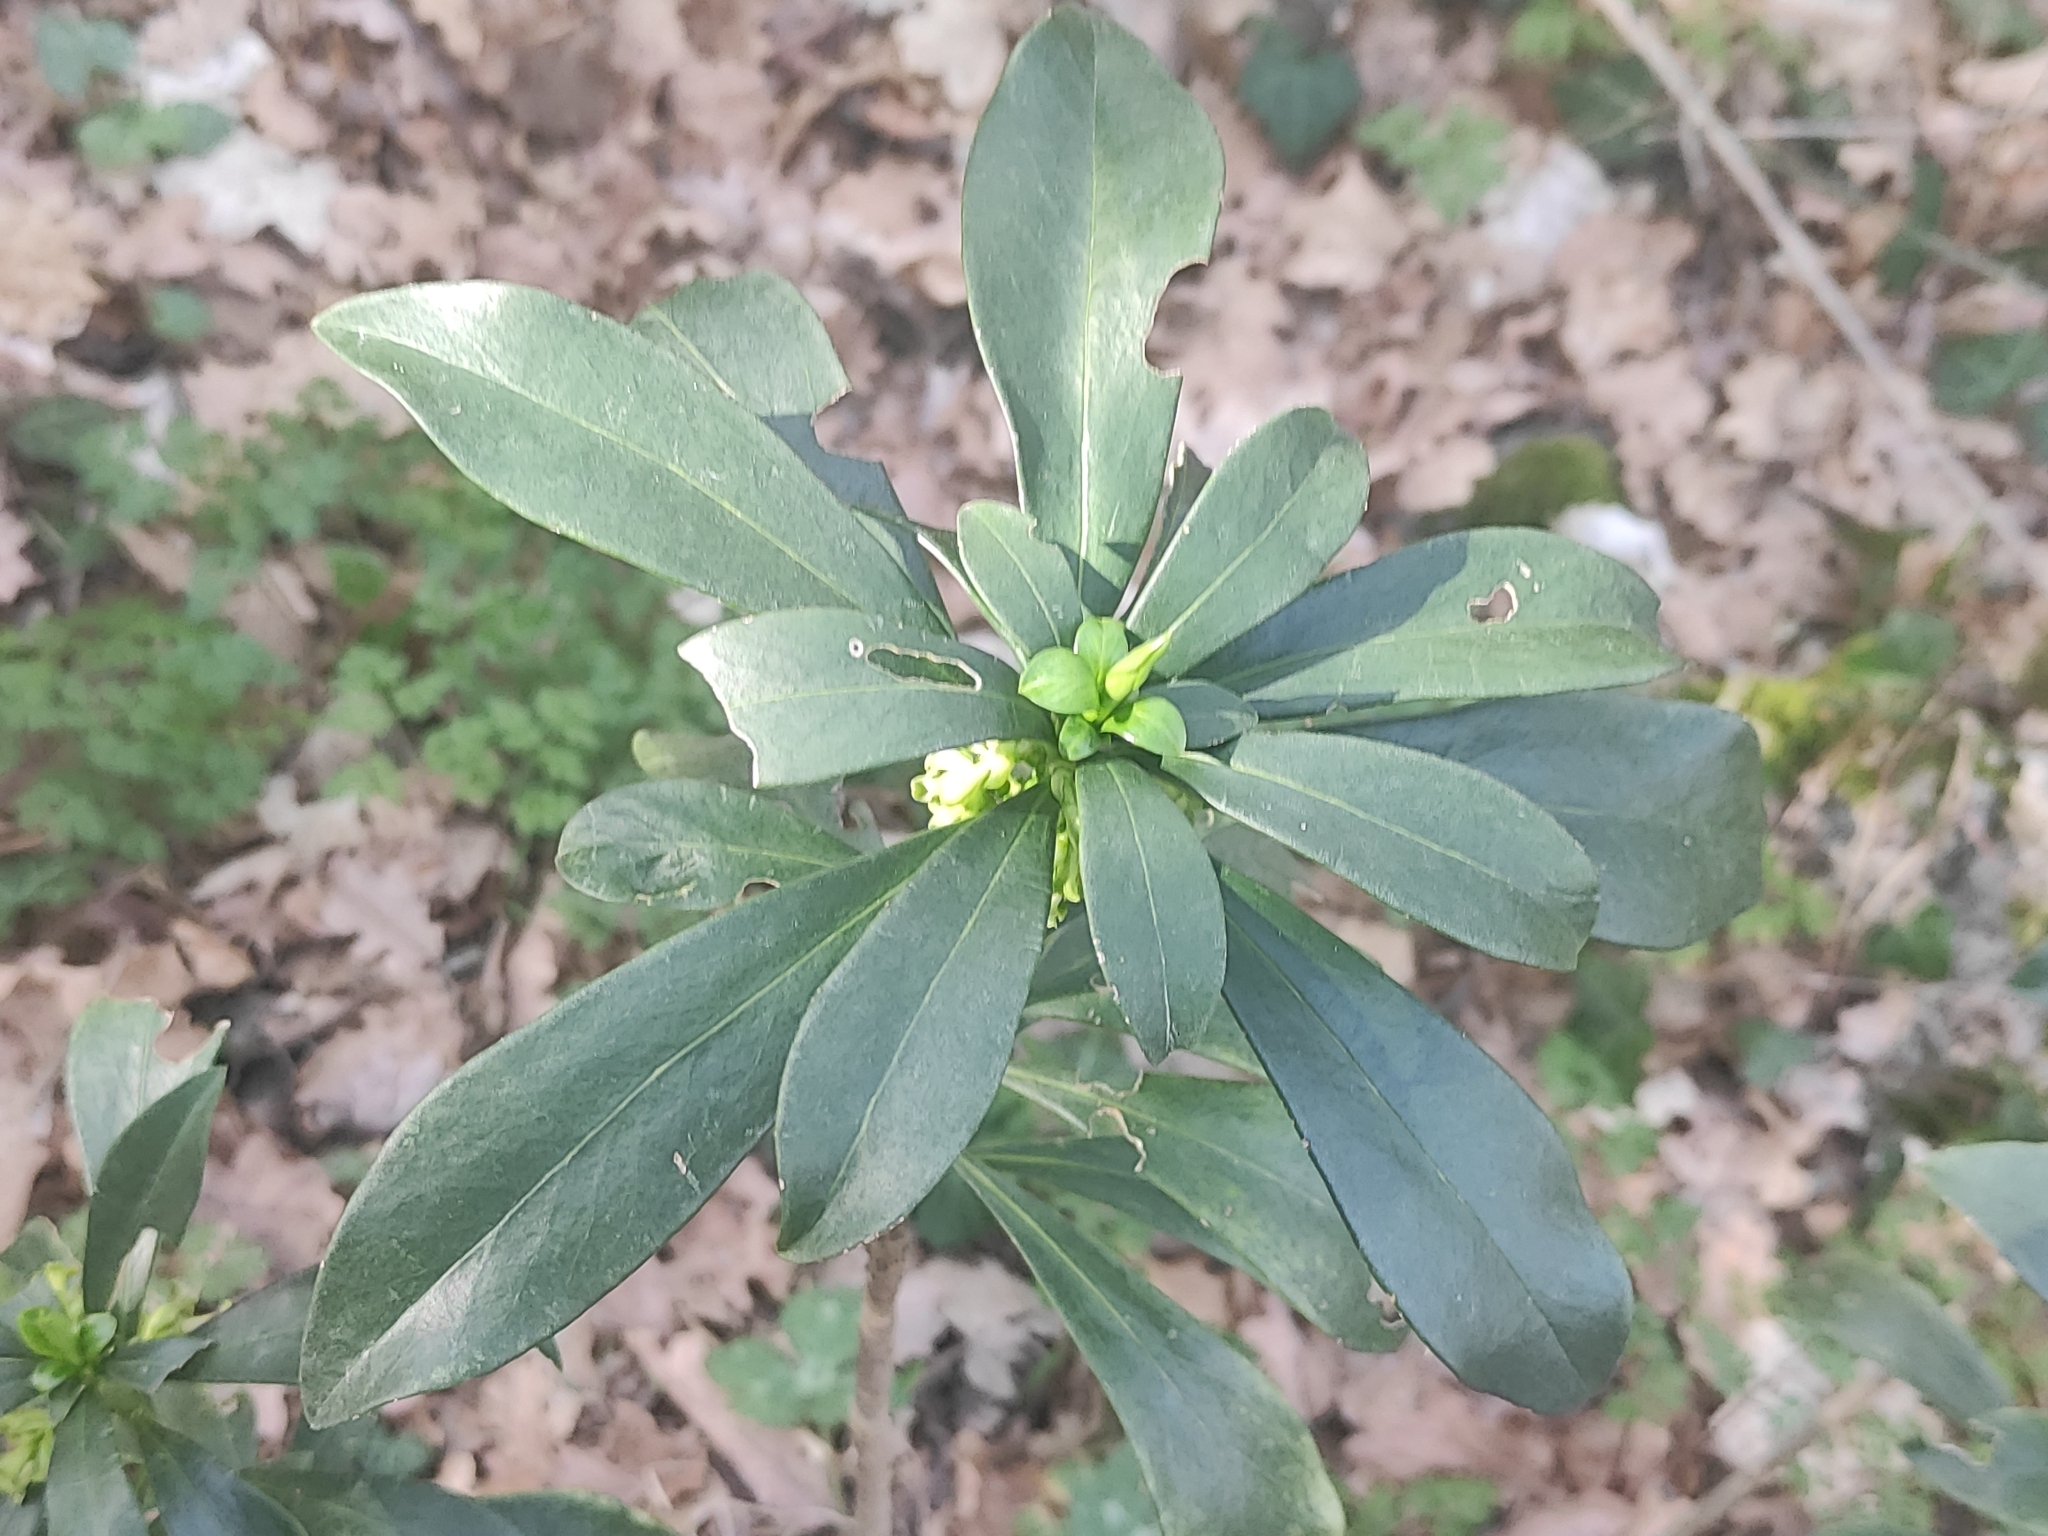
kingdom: Plantae
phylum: Tracheophyta
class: Magnoliopsida
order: Malvales
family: Thymelaeaceae
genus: Daphne
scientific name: Daphne laureola
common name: Spurge-laurel
